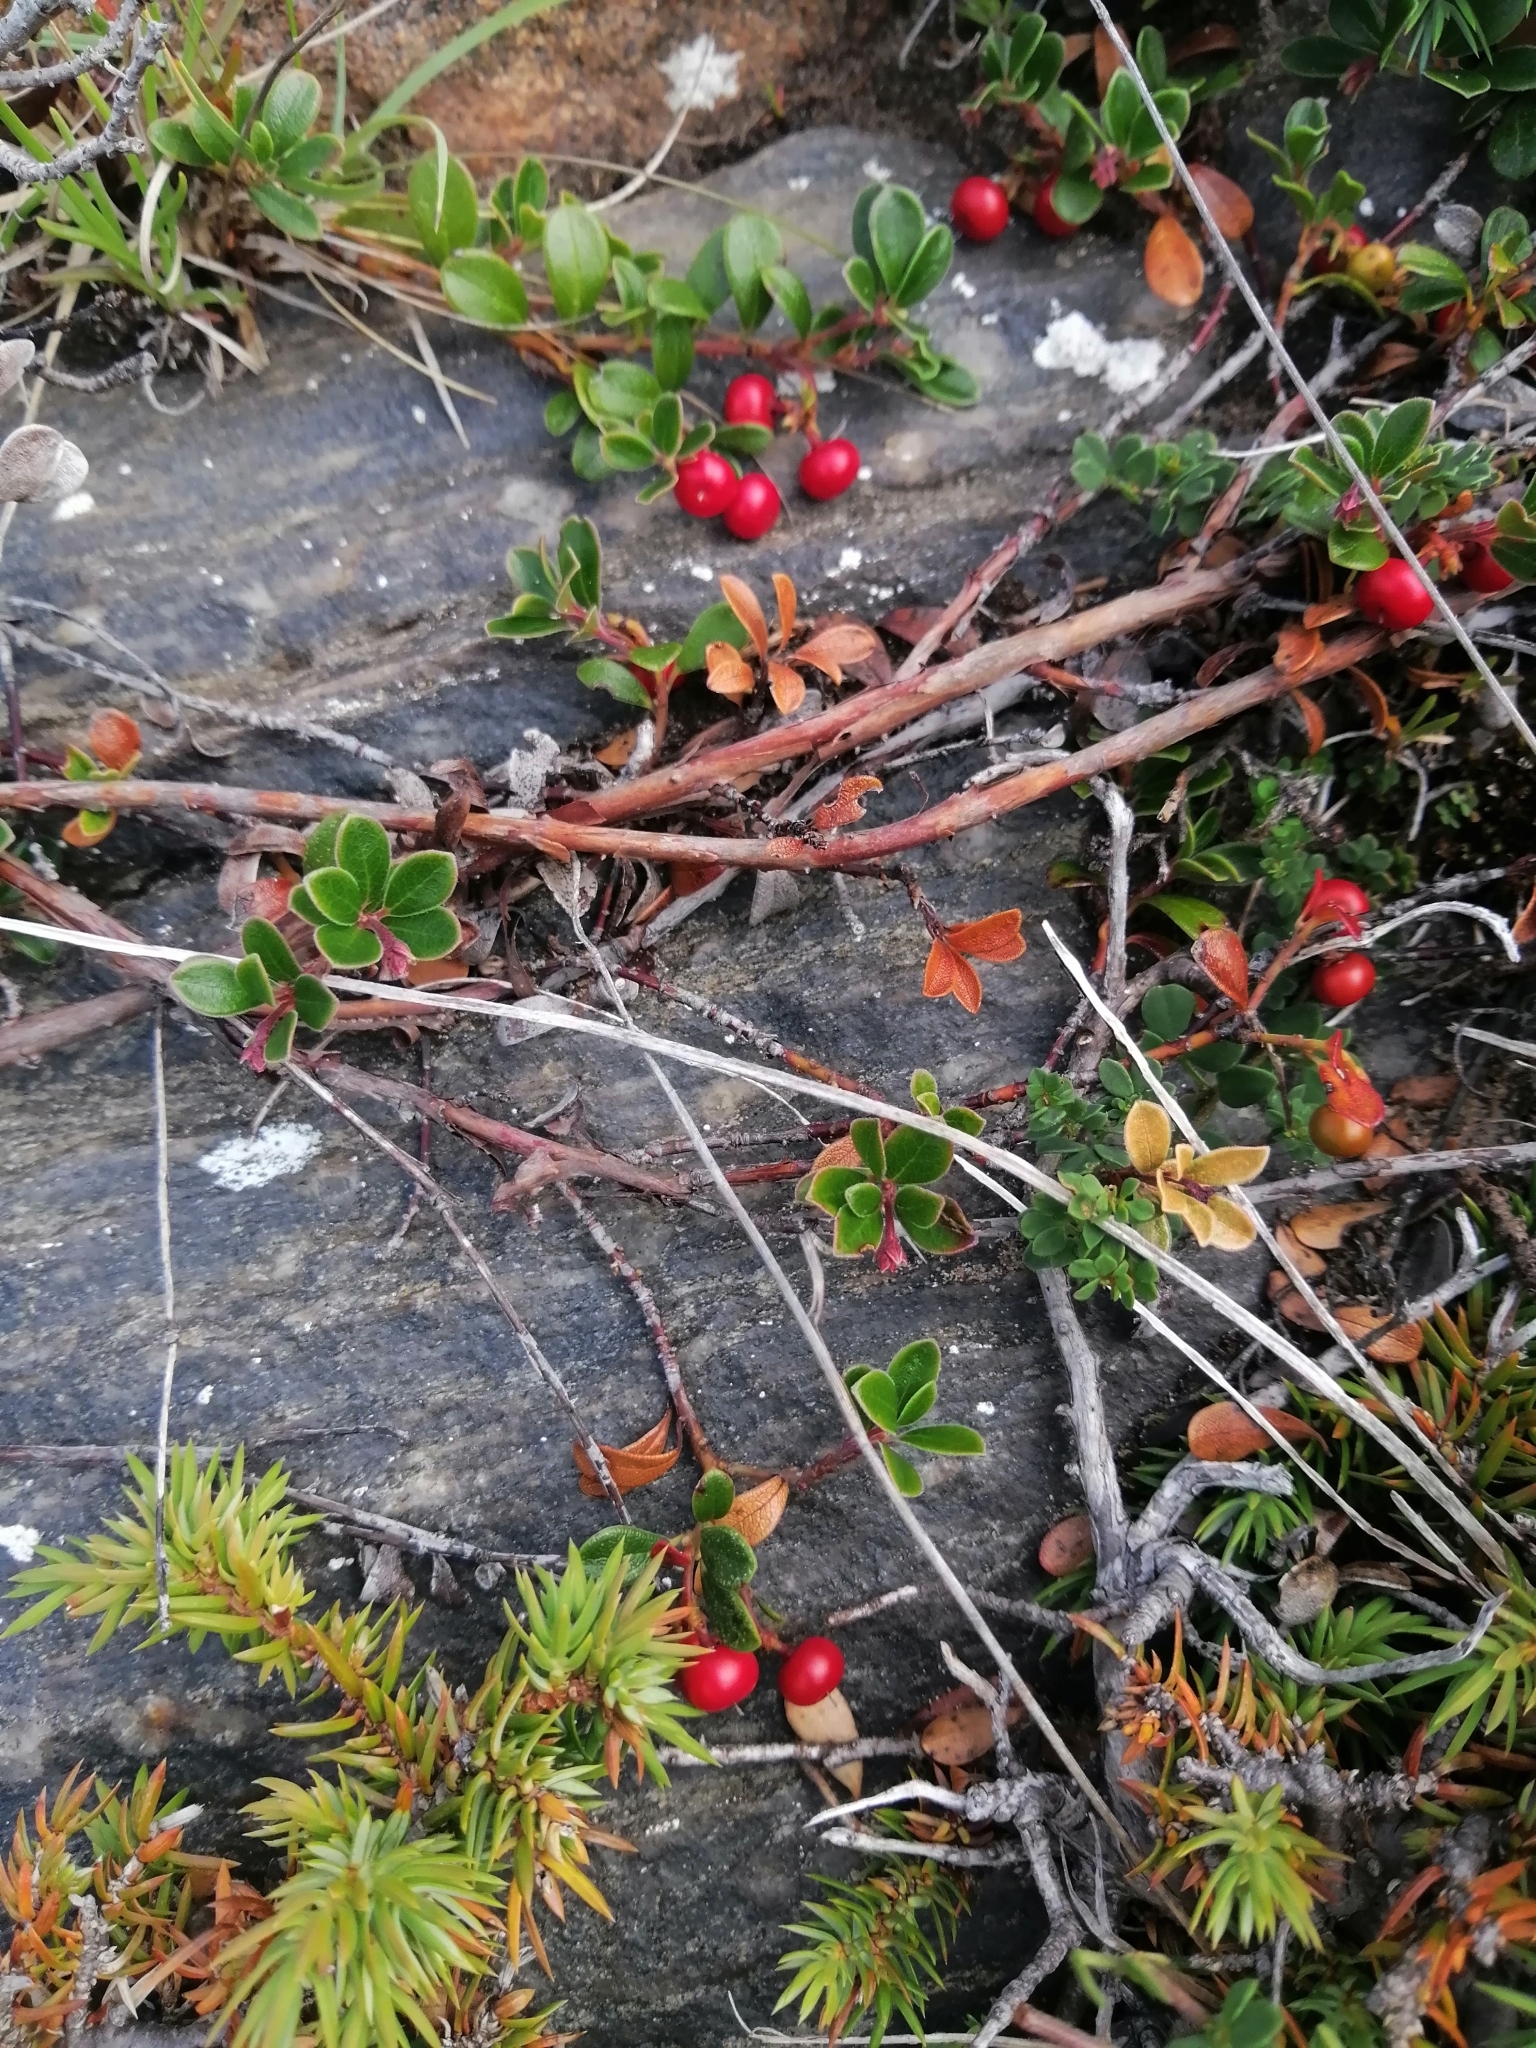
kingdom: Plantae
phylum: Tracheophyta
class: Magnoliopsida
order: Ericales
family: Ericaceae
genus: Arctostaphylos
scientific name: Arctostaphylos uva-ursi
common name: Bearberry
